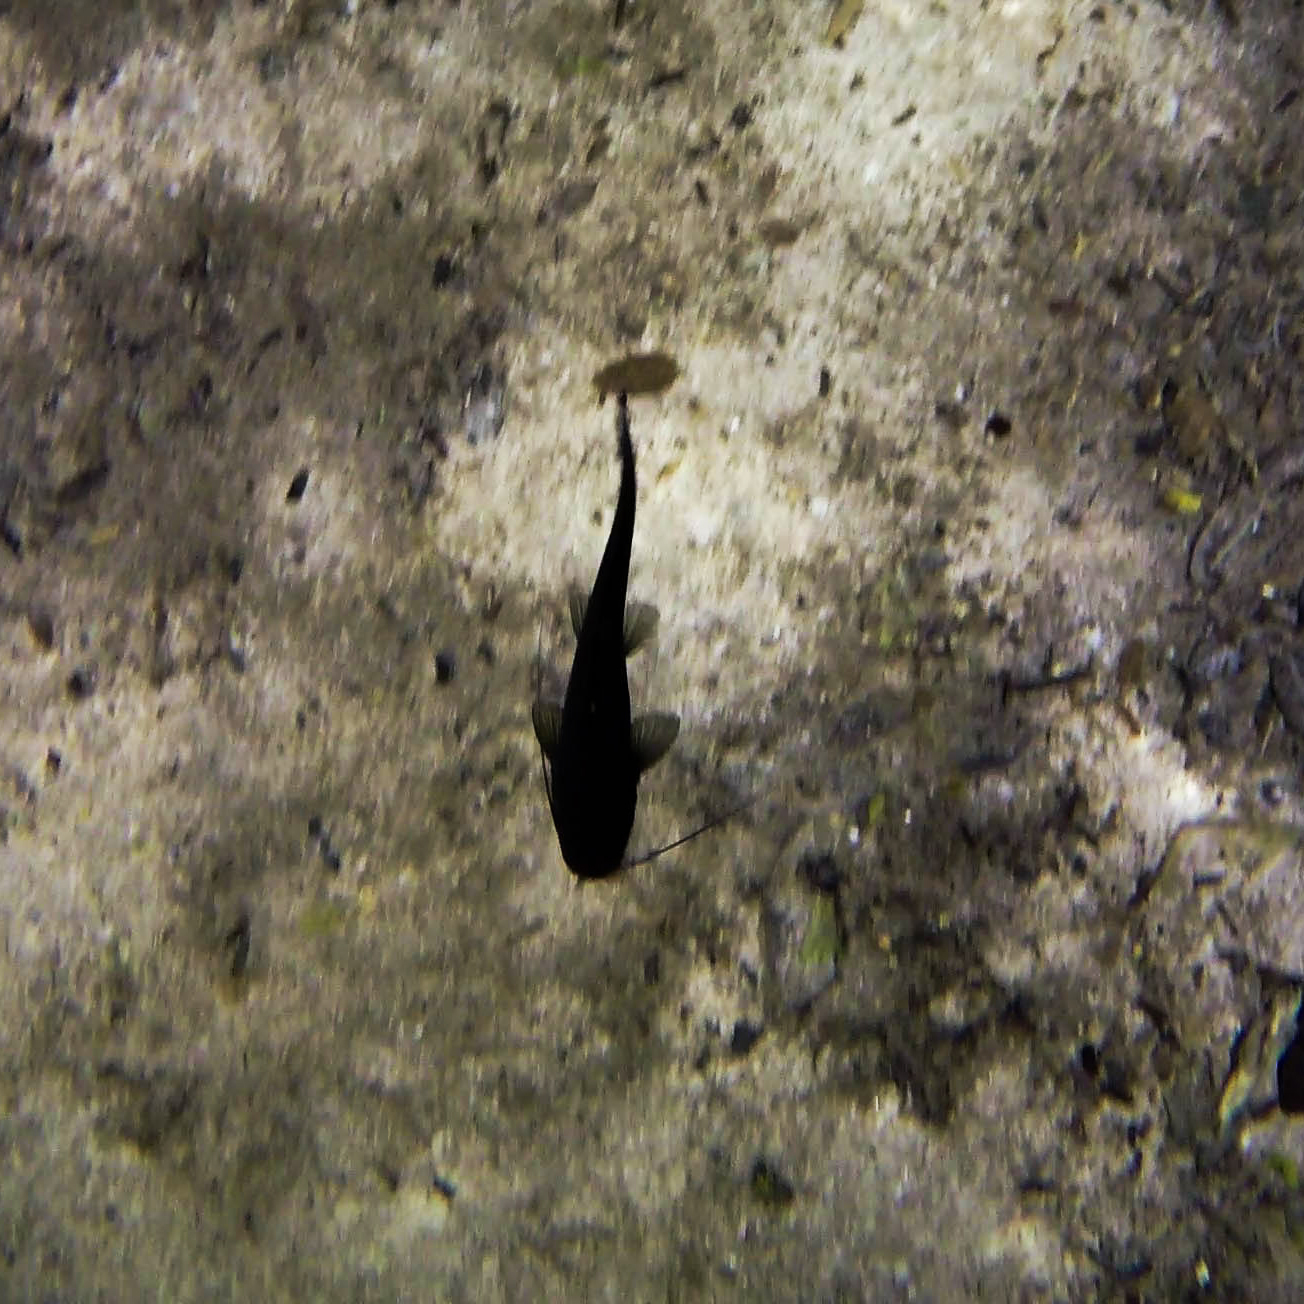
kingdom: Animalia
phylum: Chordata
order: Siluriformes
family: Heptapteridae
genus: Rhamdia
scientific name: Rhamdia guatemalensis
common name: Pale catfish
